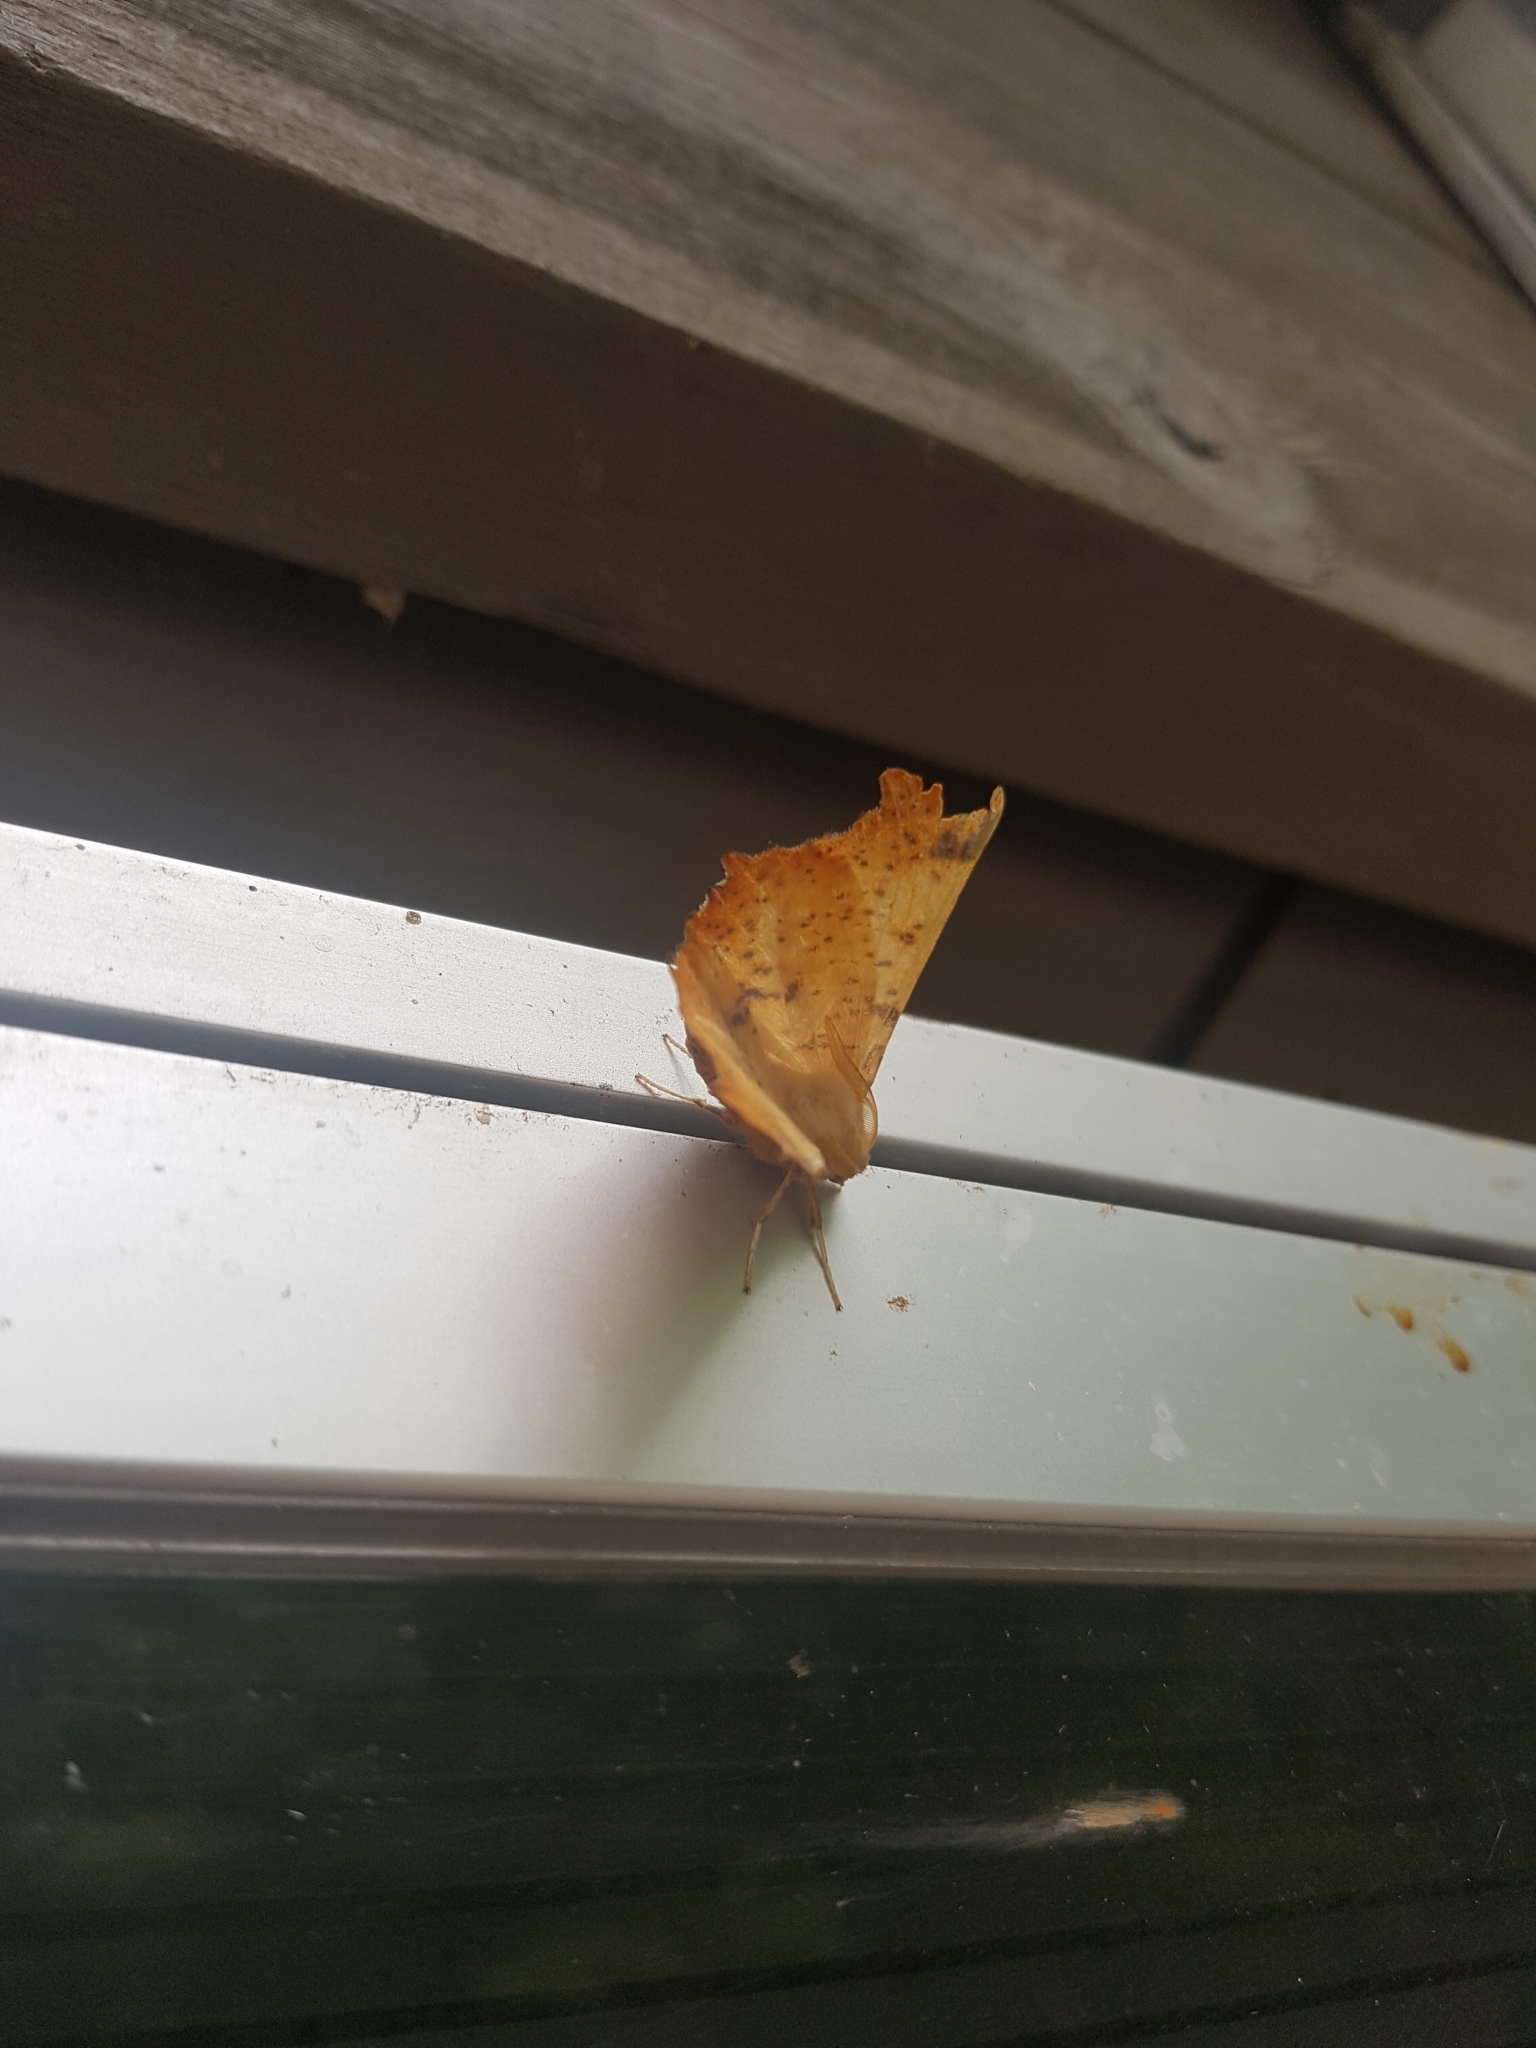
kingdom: Animalia
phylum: Arthropoda
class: Insecta
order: Lepidoptera
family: Geometridae
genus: Ennomos
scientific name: Ennomos magnaria
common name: Maple spanworm
